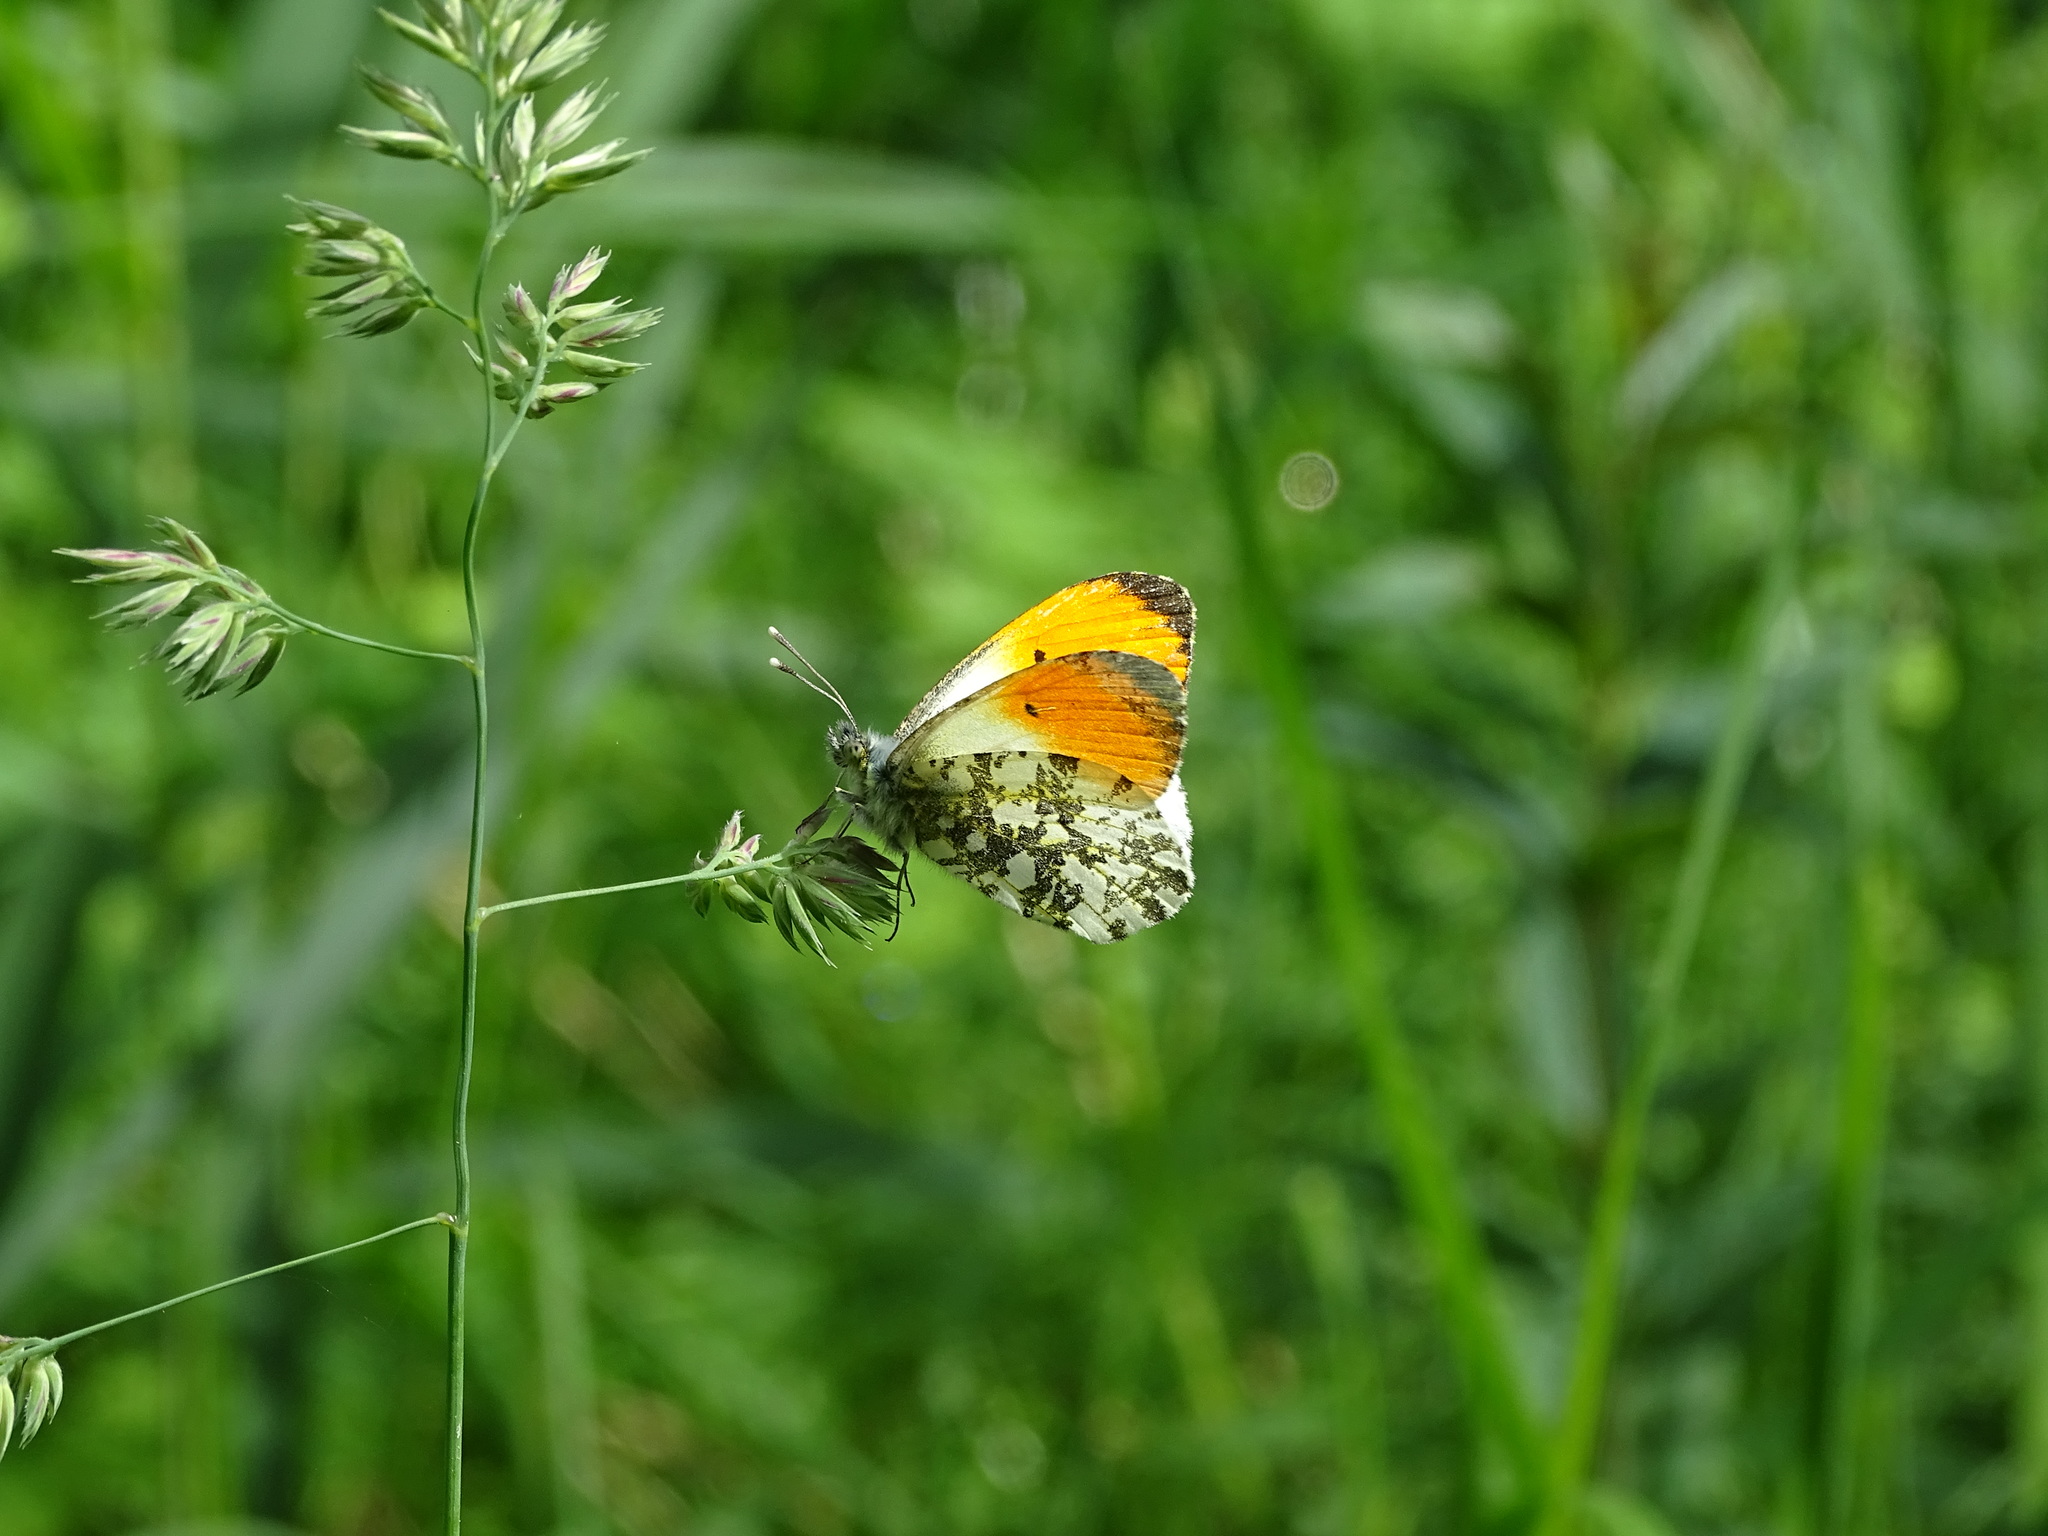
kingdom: Animalia
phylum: Arthropoda
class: Insecta
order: Lepidoptera
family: Pieridae
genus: Anthocharis
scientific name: Anthocharis cardamines
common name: Orange-tip
